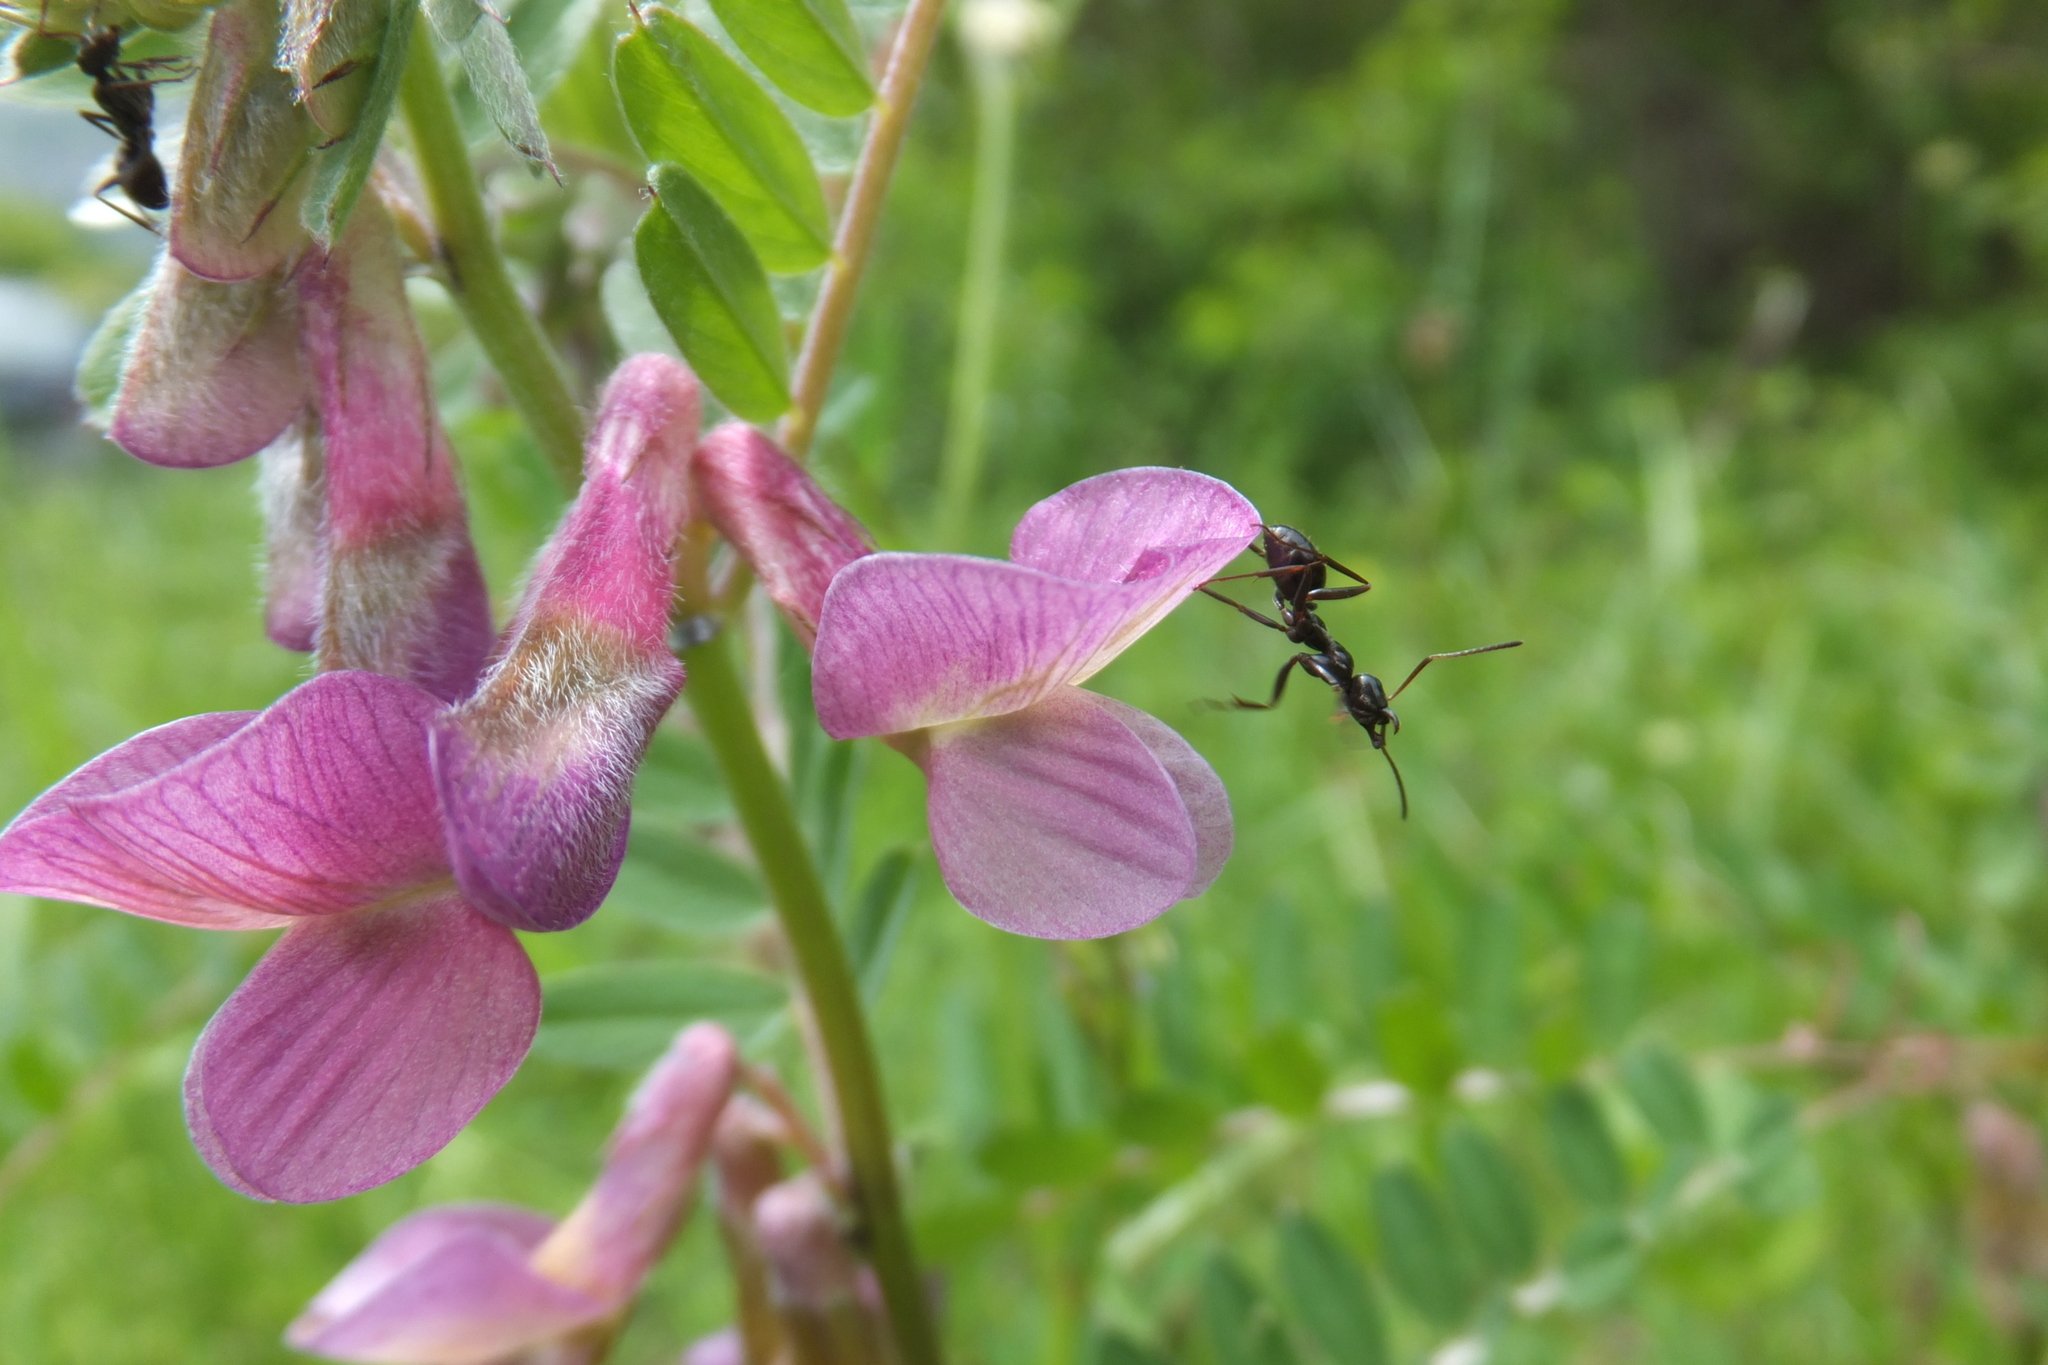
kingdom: Plantae
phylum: Tracheophyta
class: Magnoliopsida
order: Fabales
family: Fabaceae
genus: Vicia
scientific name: Vicia pannonica
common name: Hungarian vetch
